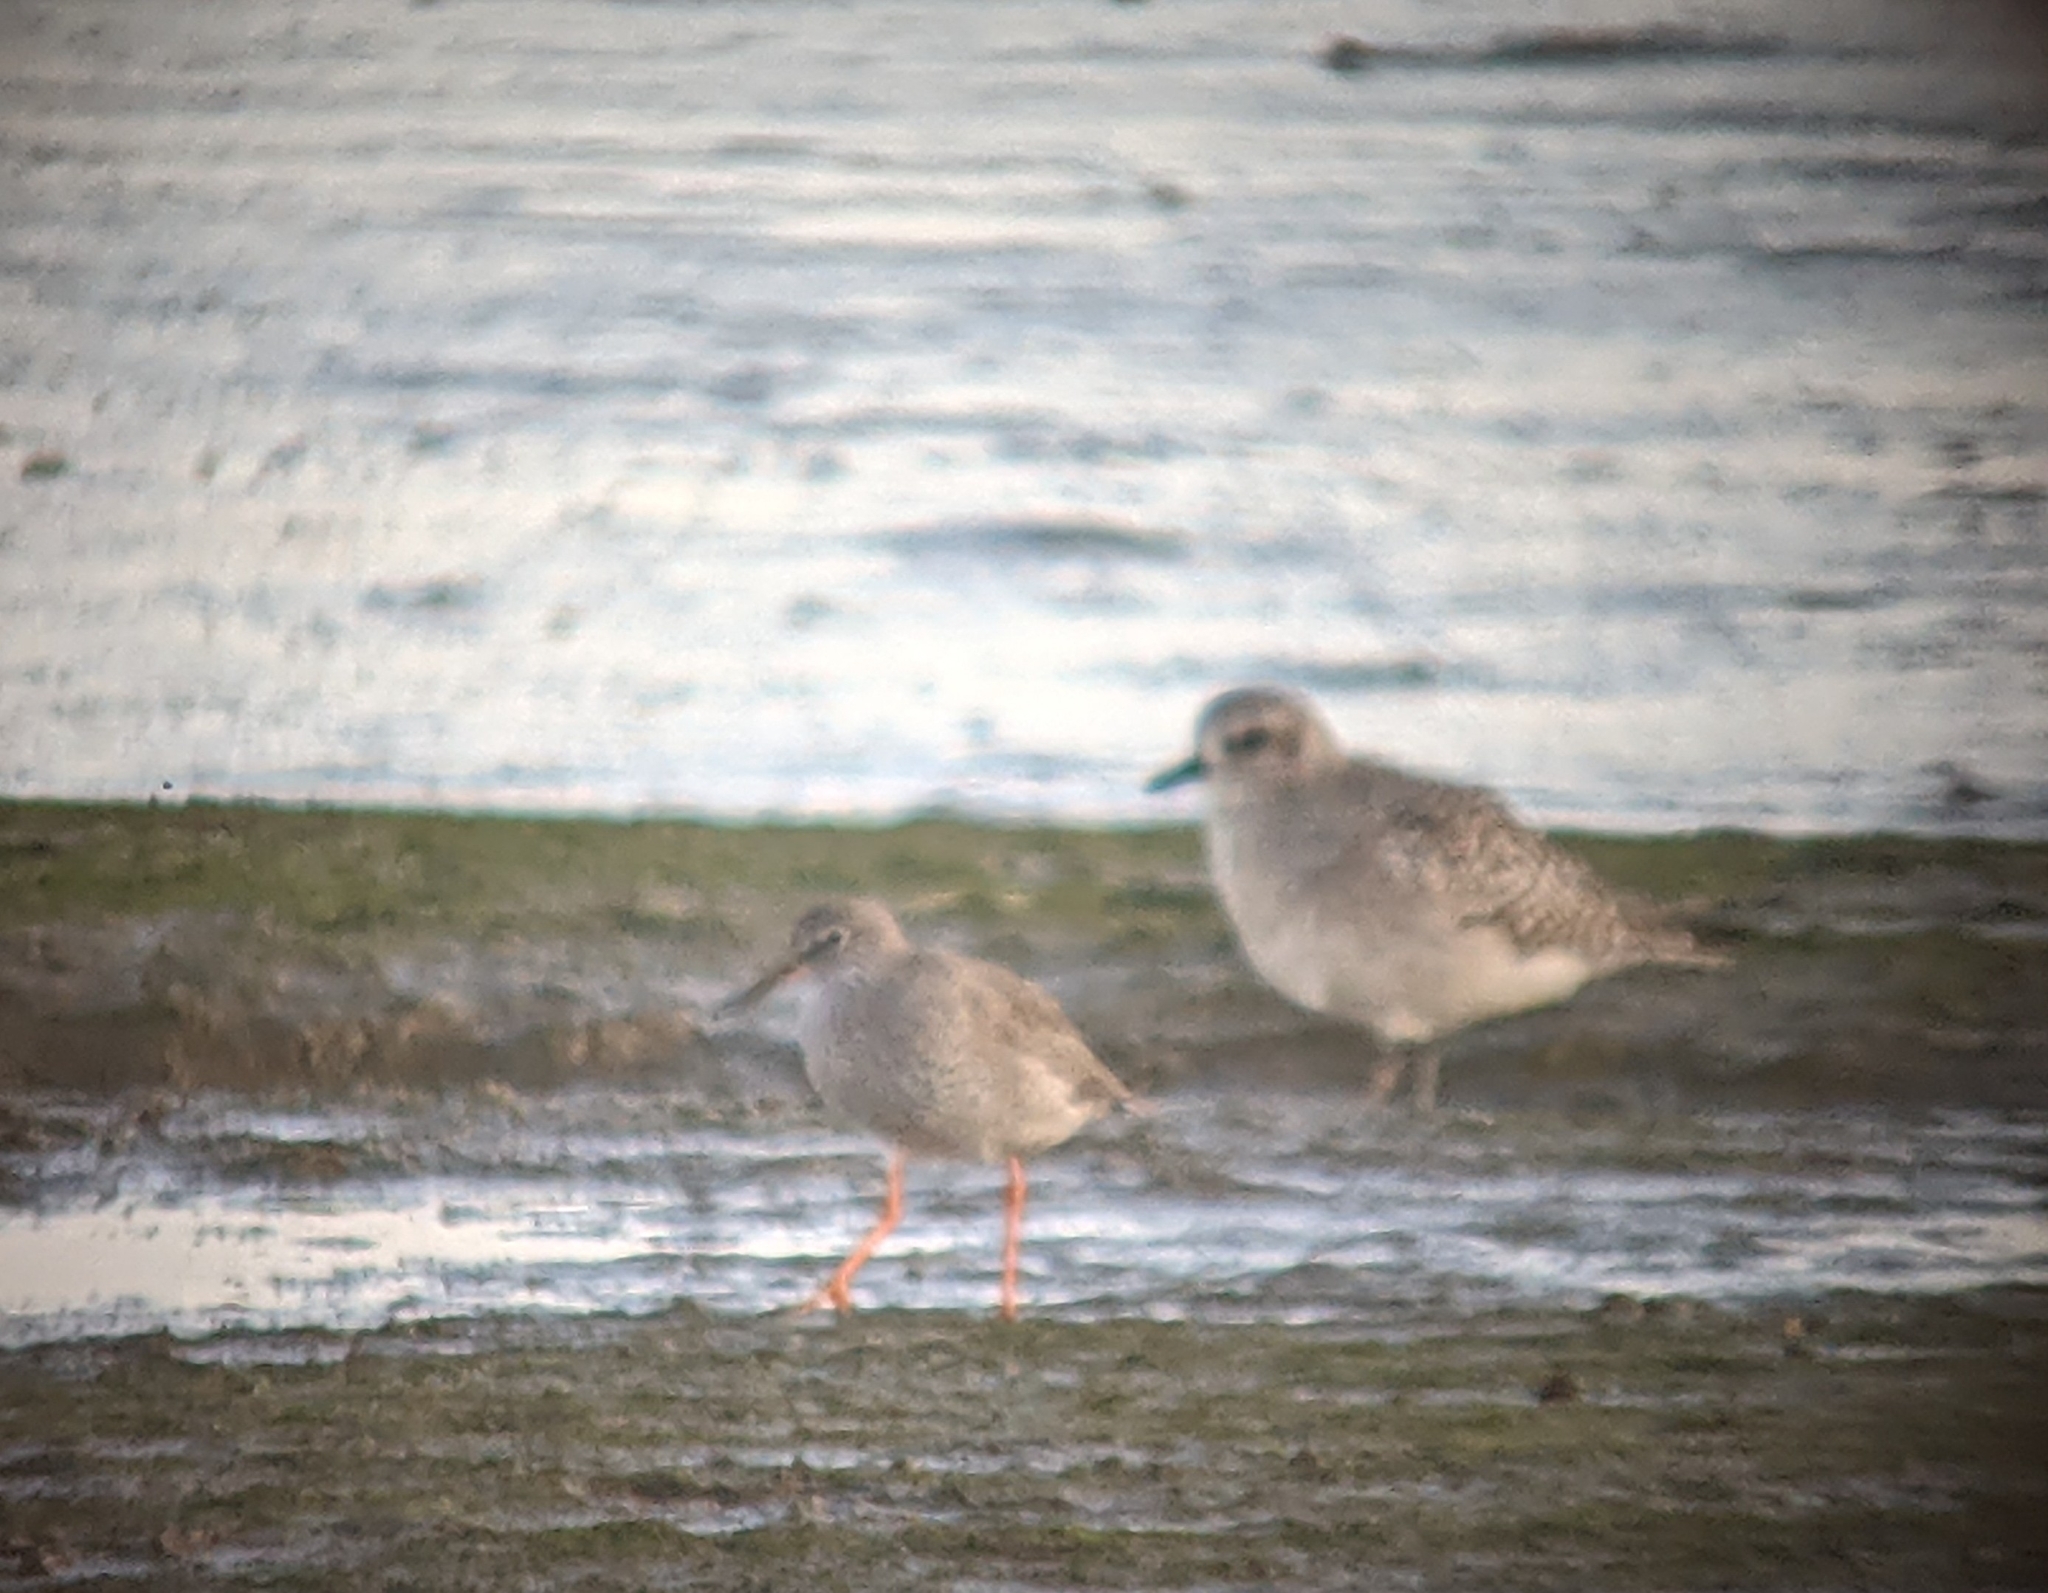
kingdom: Animalia
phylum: Chordata
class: Aves
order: Charadriiformes
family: Scolopacidae
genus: Tringa
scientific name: Tringa totanus
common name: Common redshank
